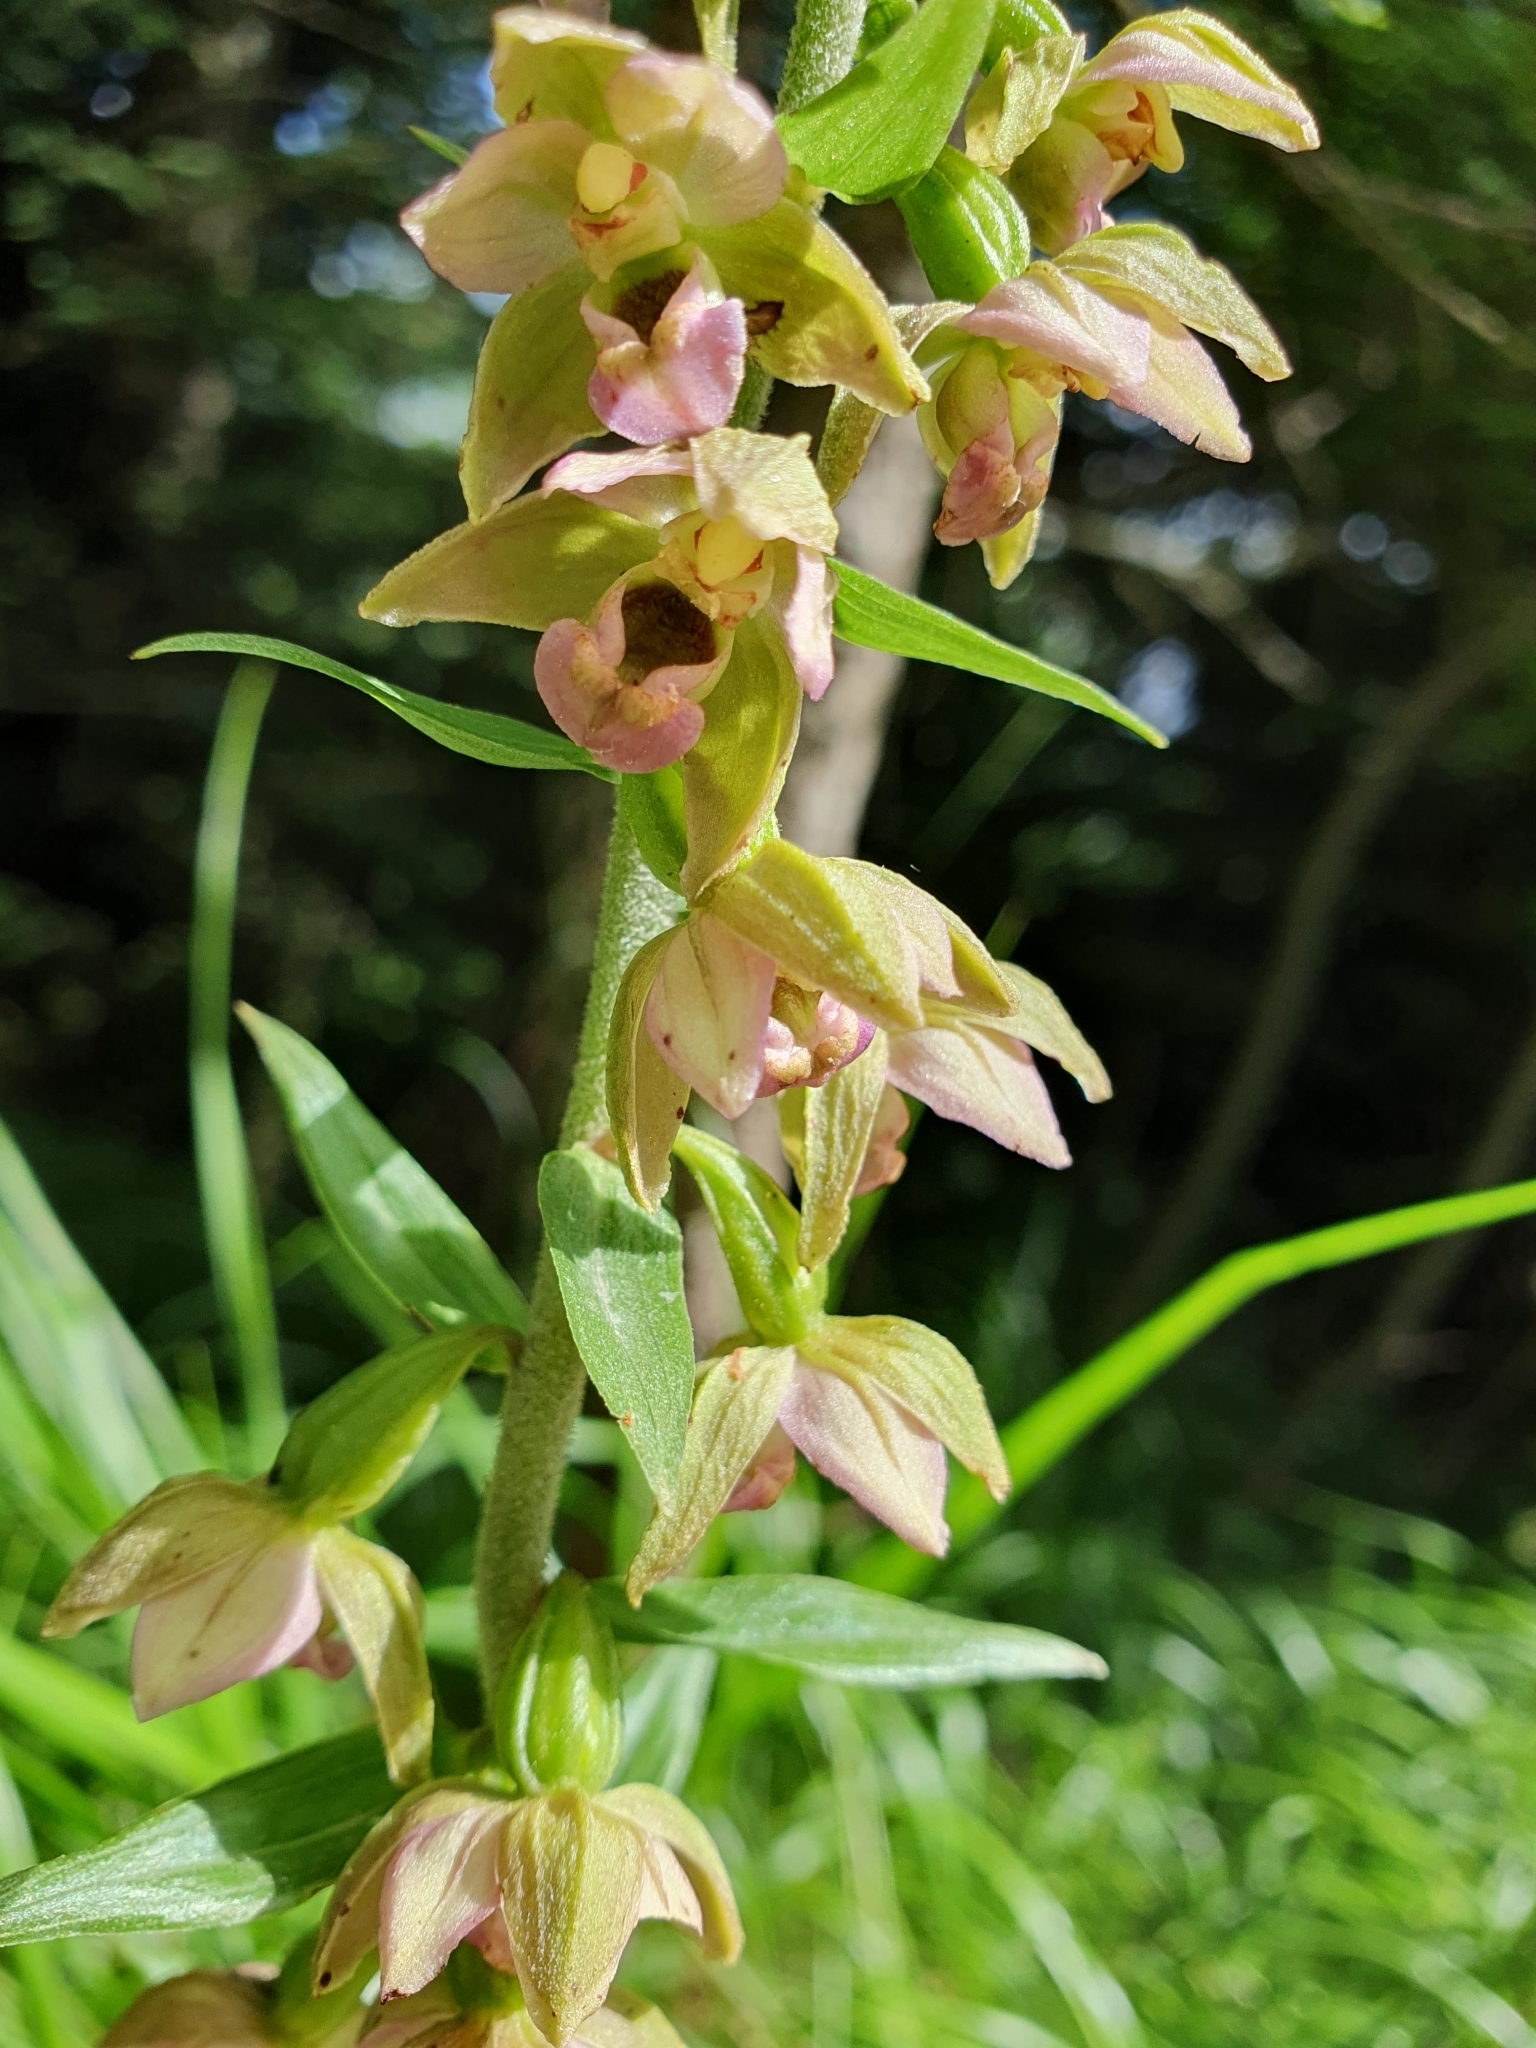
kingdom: Plantae
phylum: Tracheophyta
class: Liliopsida
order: Asparagales
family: Orchidaceae
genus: Epipactis
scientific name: Epipactis helleborine
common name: Broad-leaved helleborine
